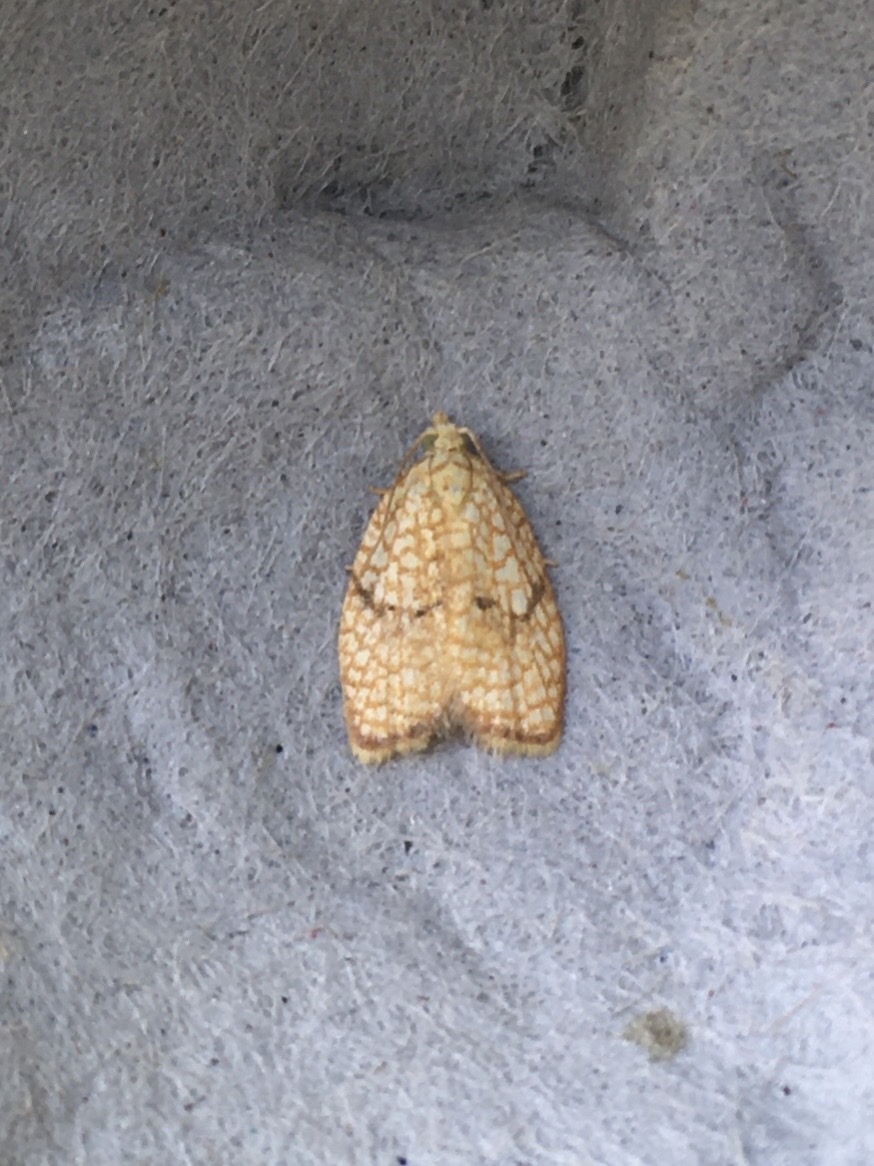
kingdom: Animalia
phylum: Arthropoda
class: Insecta
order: Lepidoptera
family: Tortricidae
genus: Acleris
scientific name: Acleris forsskaleana
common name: Maple button
